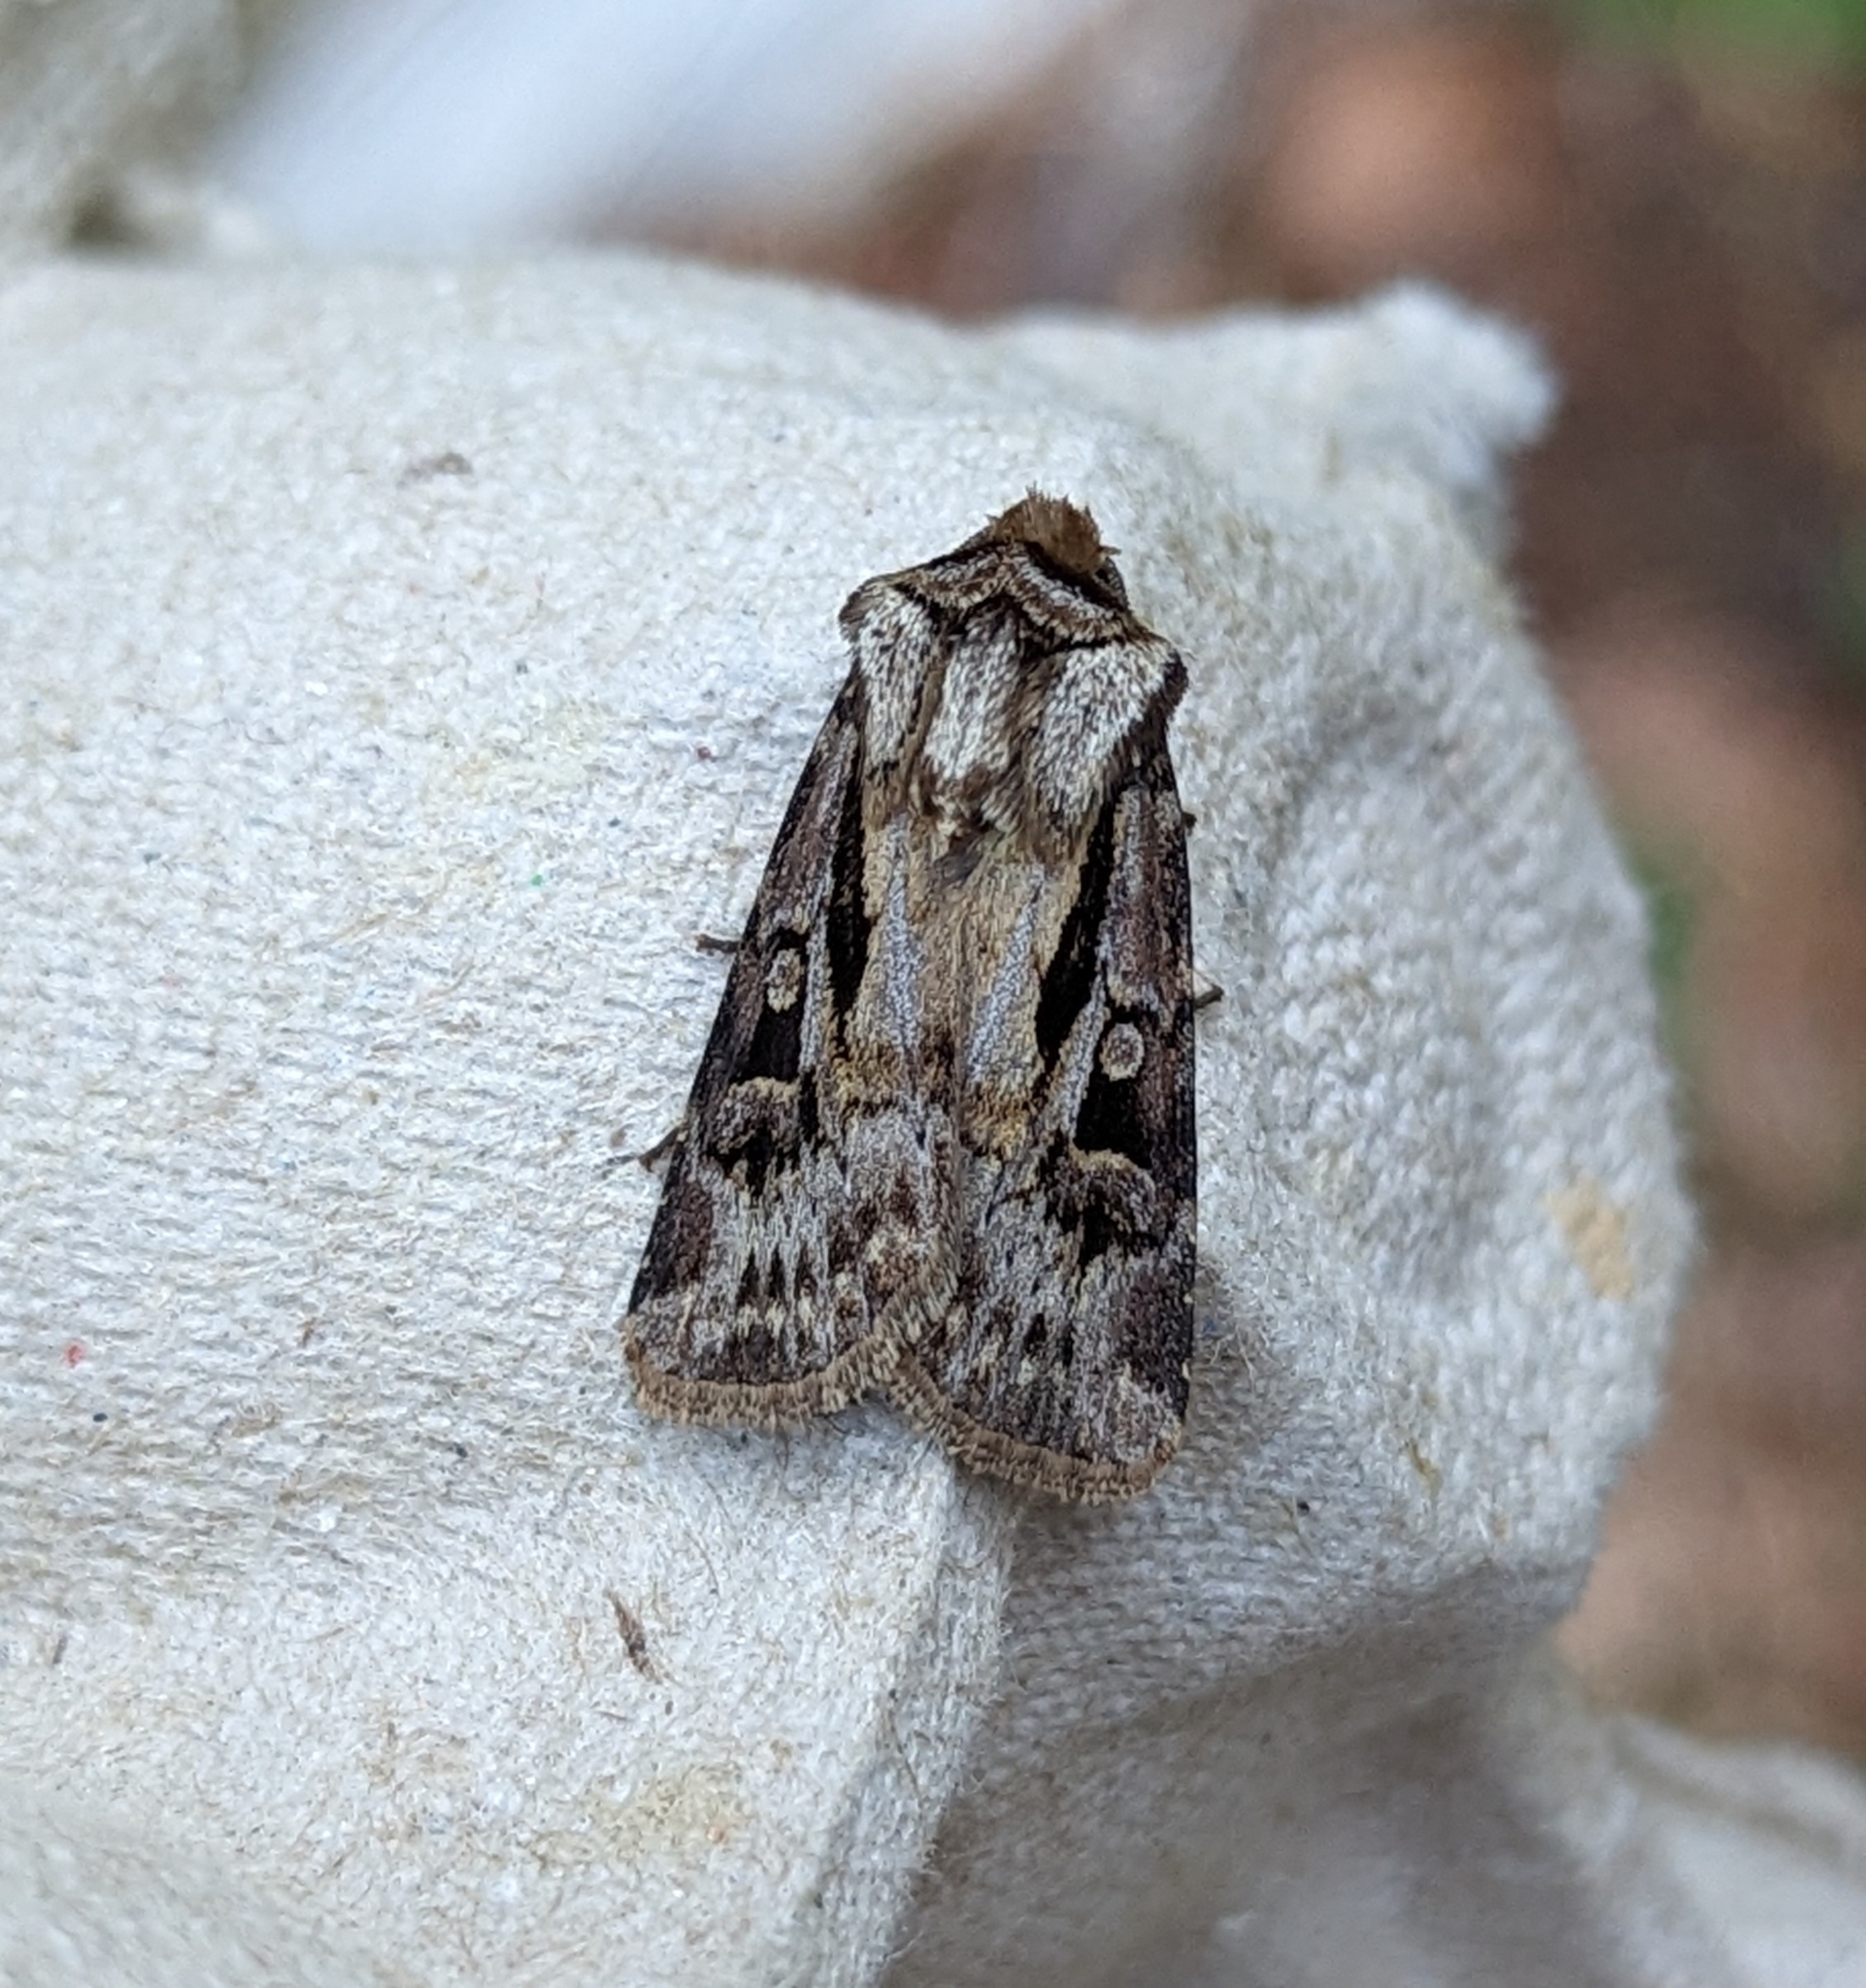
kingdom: Animalia
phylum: Arthropoda
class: Insecta
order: Lepidoptera
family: Noctuidae
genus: Agrotis
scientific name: Agrotis vancouverensis
